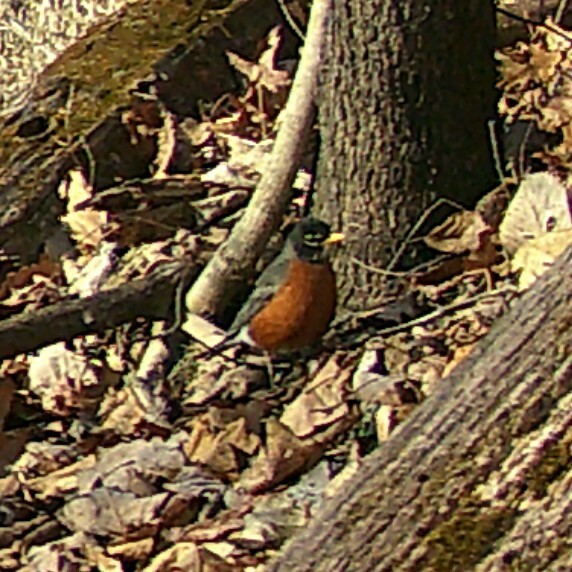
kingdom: Animalia
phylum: Chordata
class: Aves
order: Passeriformes
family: Turdidae
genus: Turdus
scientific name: Turdus migratorius
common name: American robin
